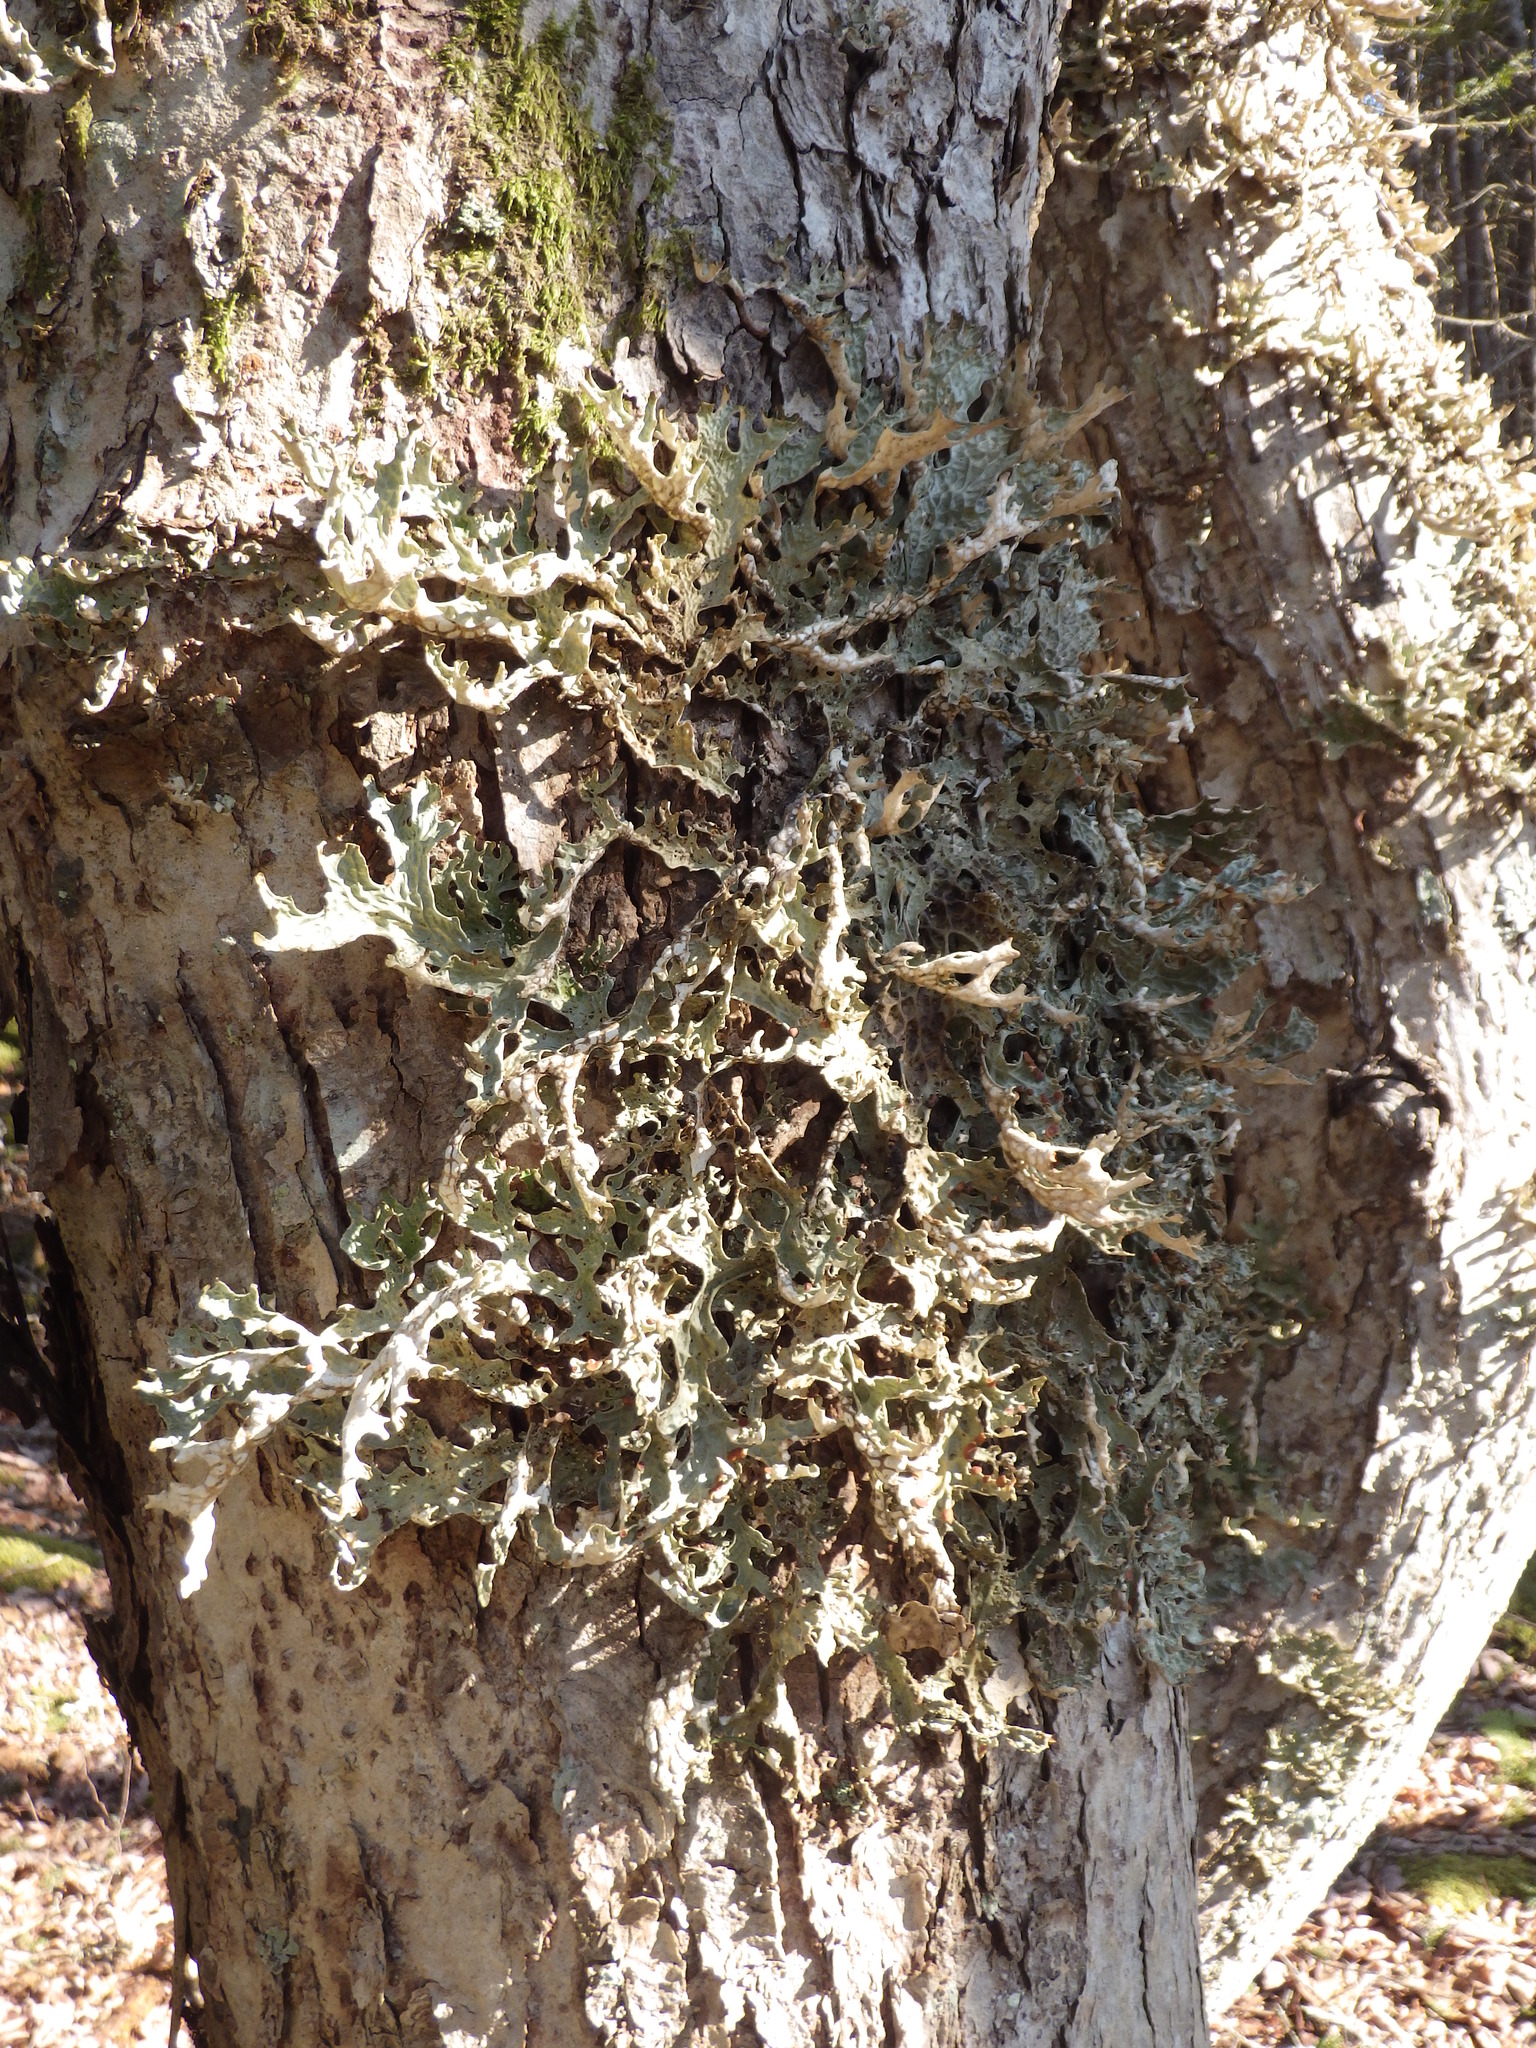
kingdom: Fungi
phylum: Ascomycota
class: Lecanoromycetes
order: Peltigerales
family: Lobariaceae
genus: Lobaria
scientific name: Lobaria pulmonaria
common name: Lungwort
